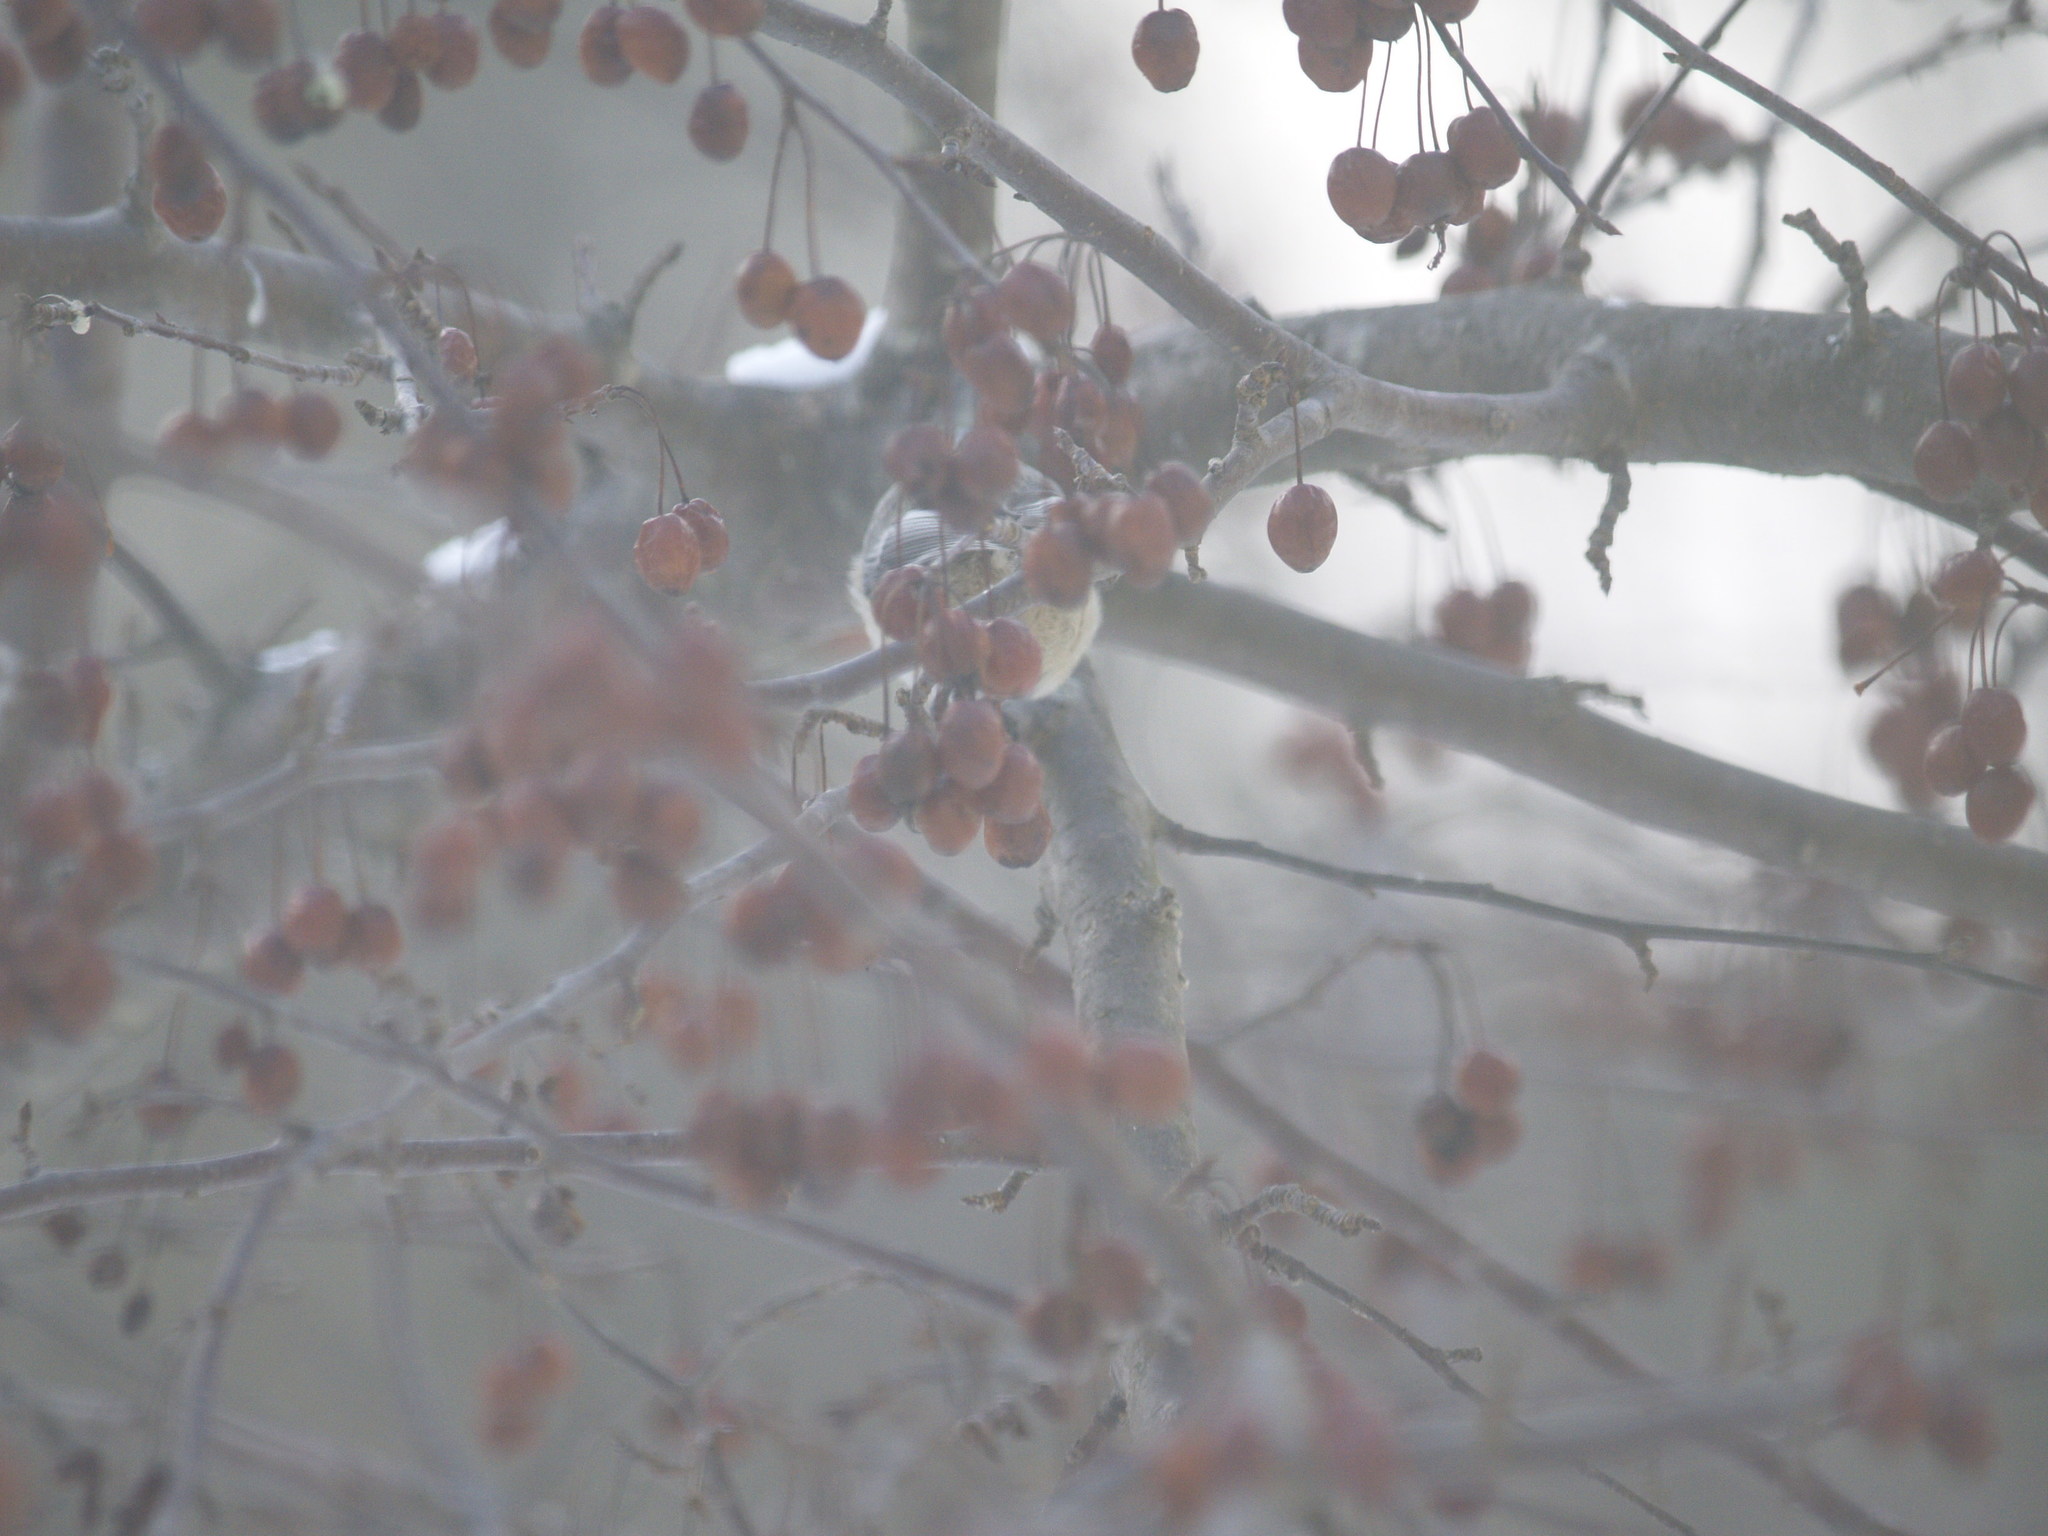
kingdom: Animalia
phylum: Chordata
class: Aves
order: Passeriformes
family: Paridae
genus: Poecile
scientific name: Poecile atricapillus
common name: Black-capped chickadee
